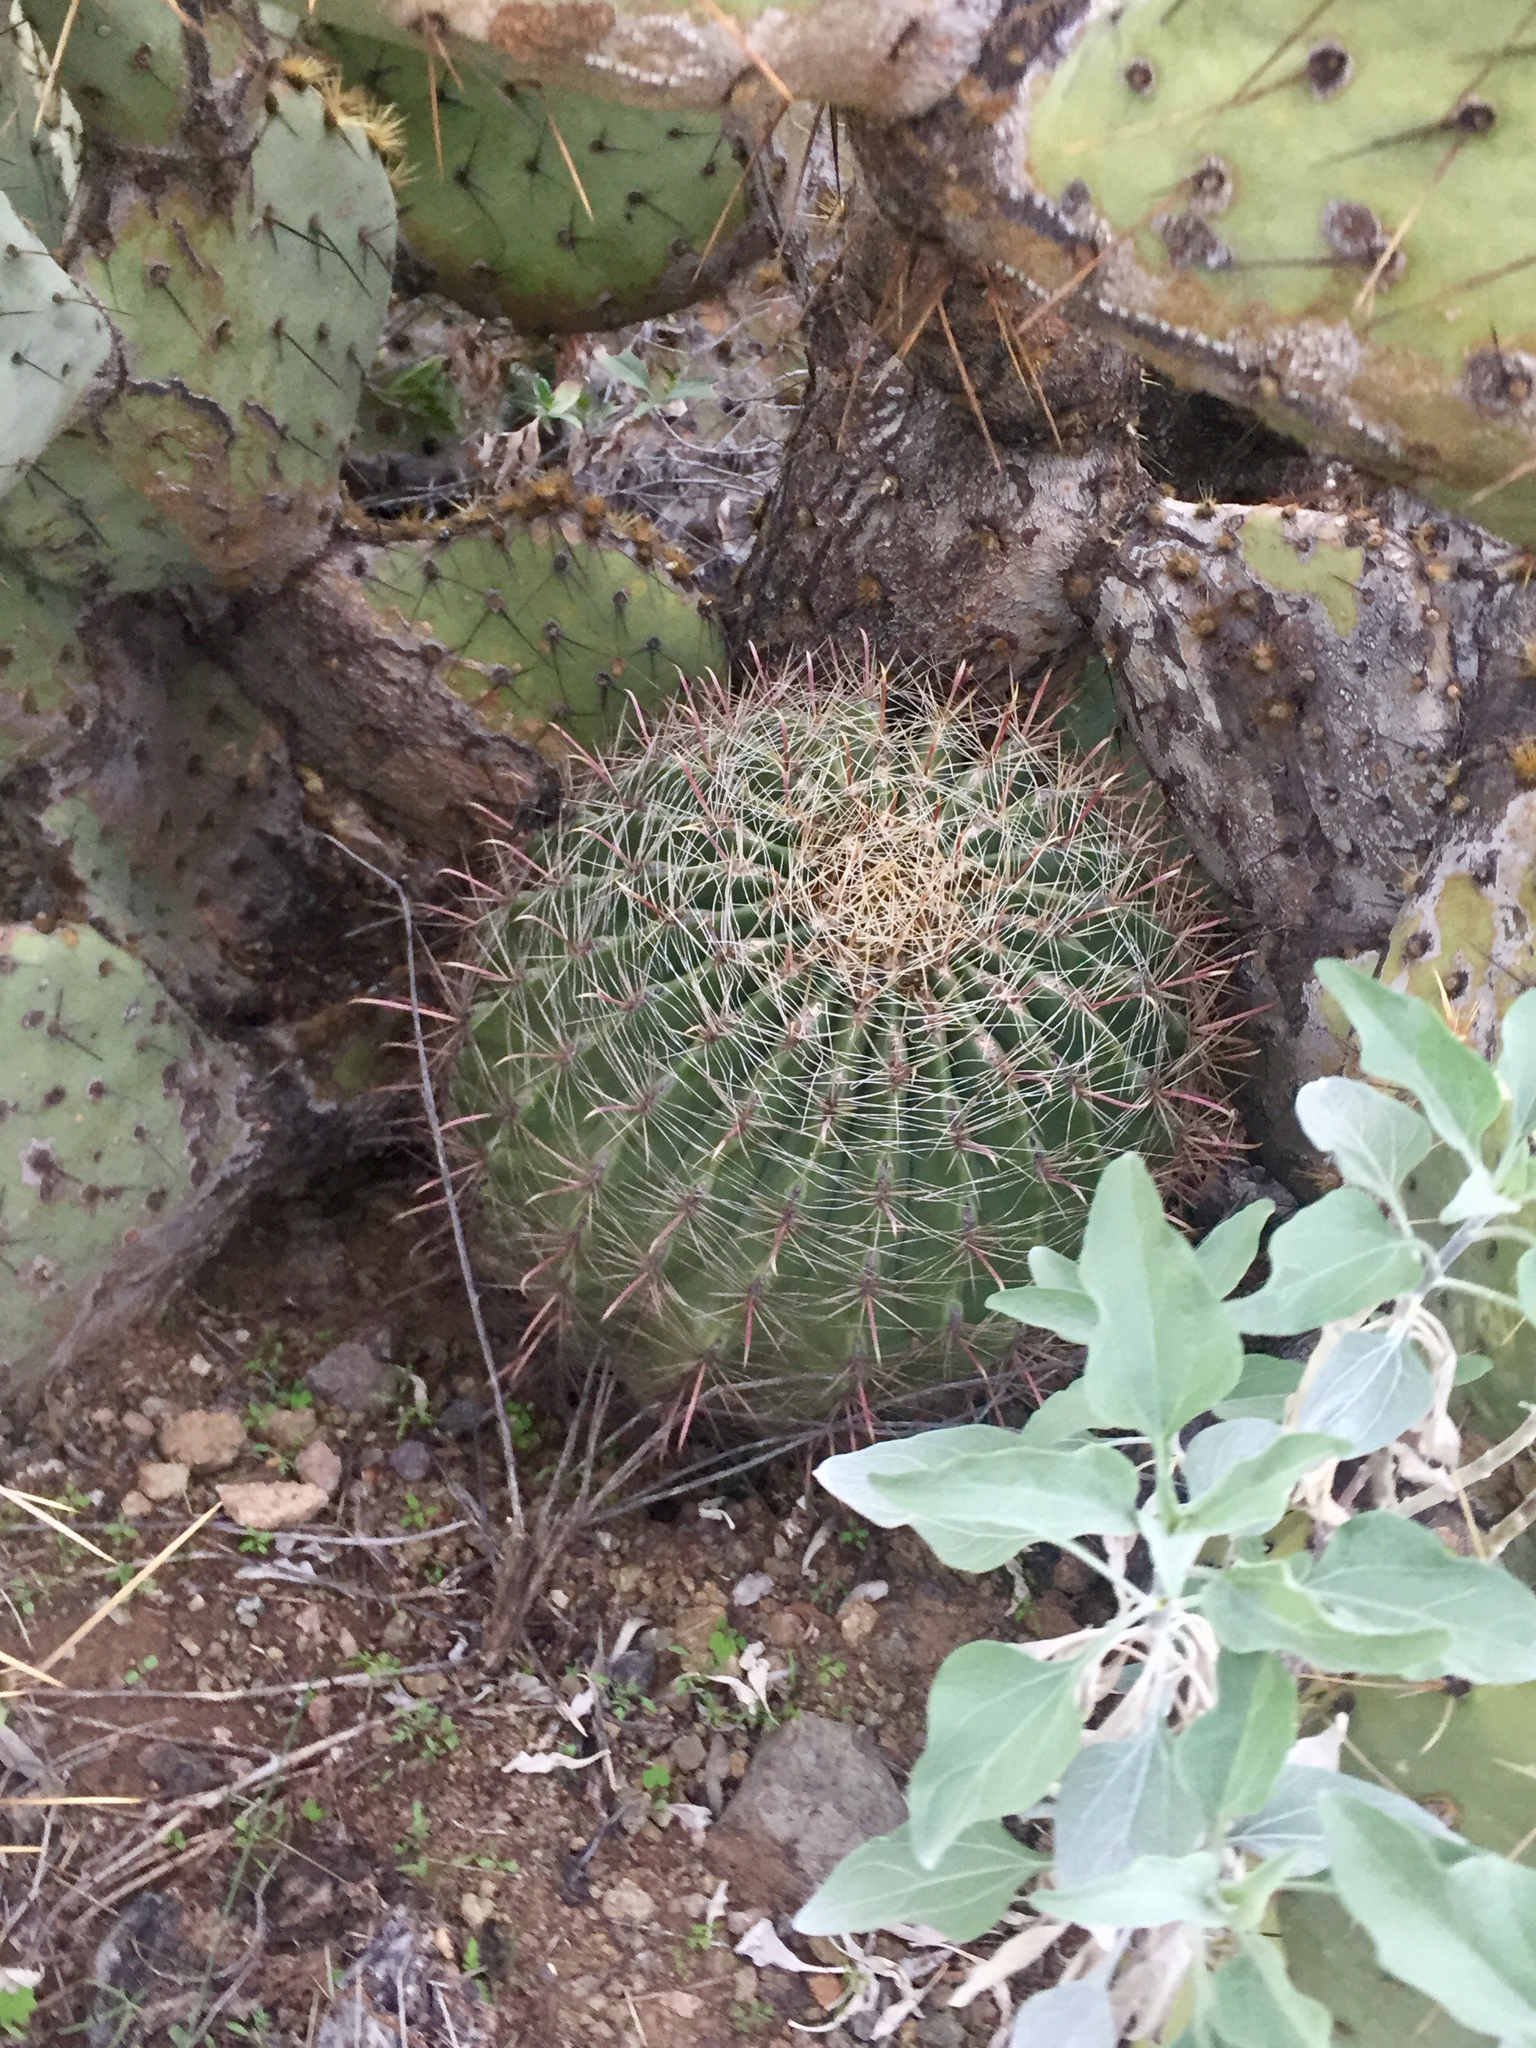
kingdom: Plantae
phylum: Tracheophyta
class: Magnoliopsida
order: Caryophyllales
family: Cactaceae
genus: Ferocactus
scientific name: Ferocactus wislizeni
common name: Candy barrel cactus
